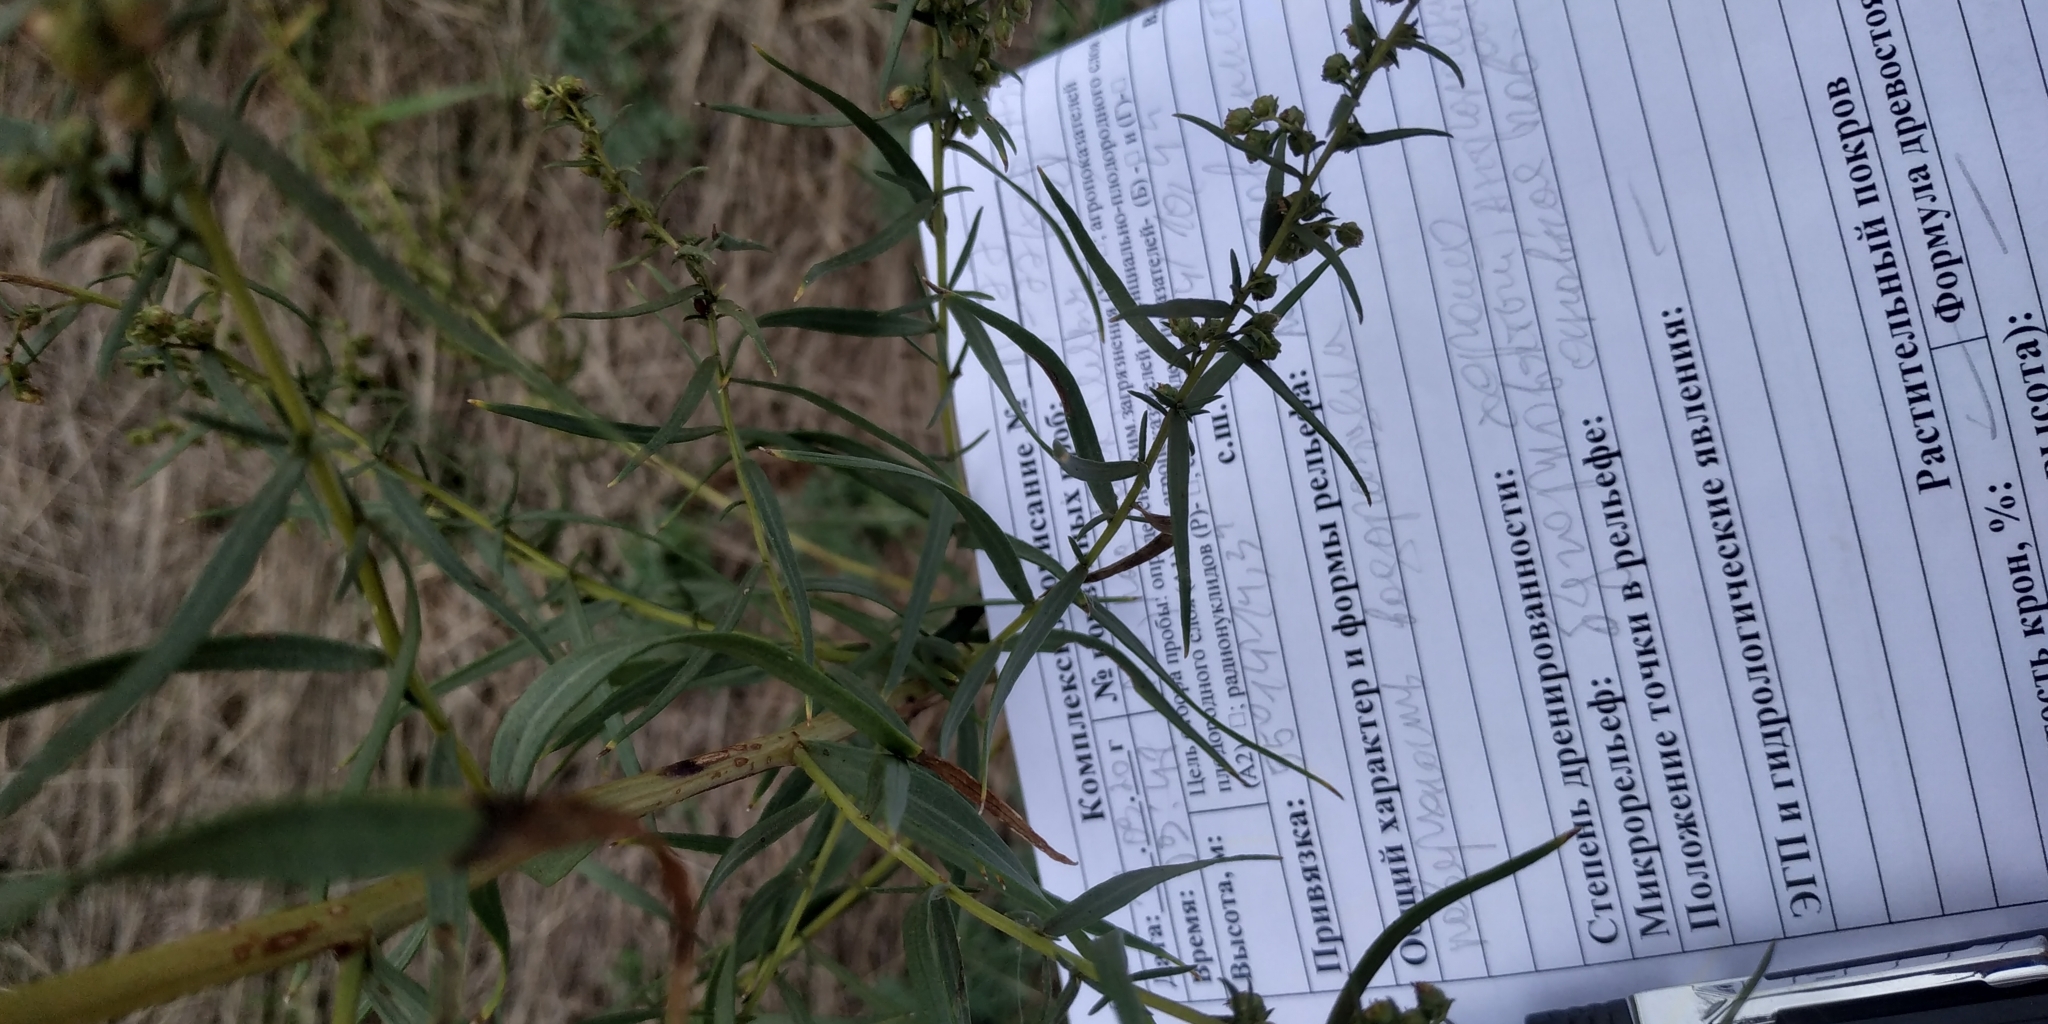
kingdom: Plantae
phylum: Tracheophyta
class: Magnoliopsida
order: Asterales
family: Asteraceae
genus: Artemisia
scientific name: Artemisia dracunculus
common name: Tarragon
